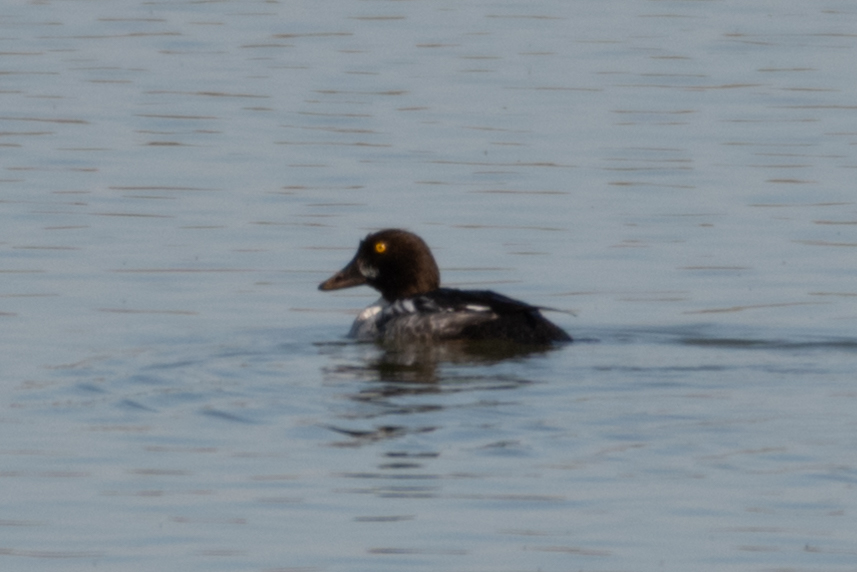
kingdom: Animalia
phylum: Chordata
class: Aves
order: Anseriformes
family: Anatidae
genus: Bucephala
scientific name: Bucephala clangula
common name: Common goldeneye
